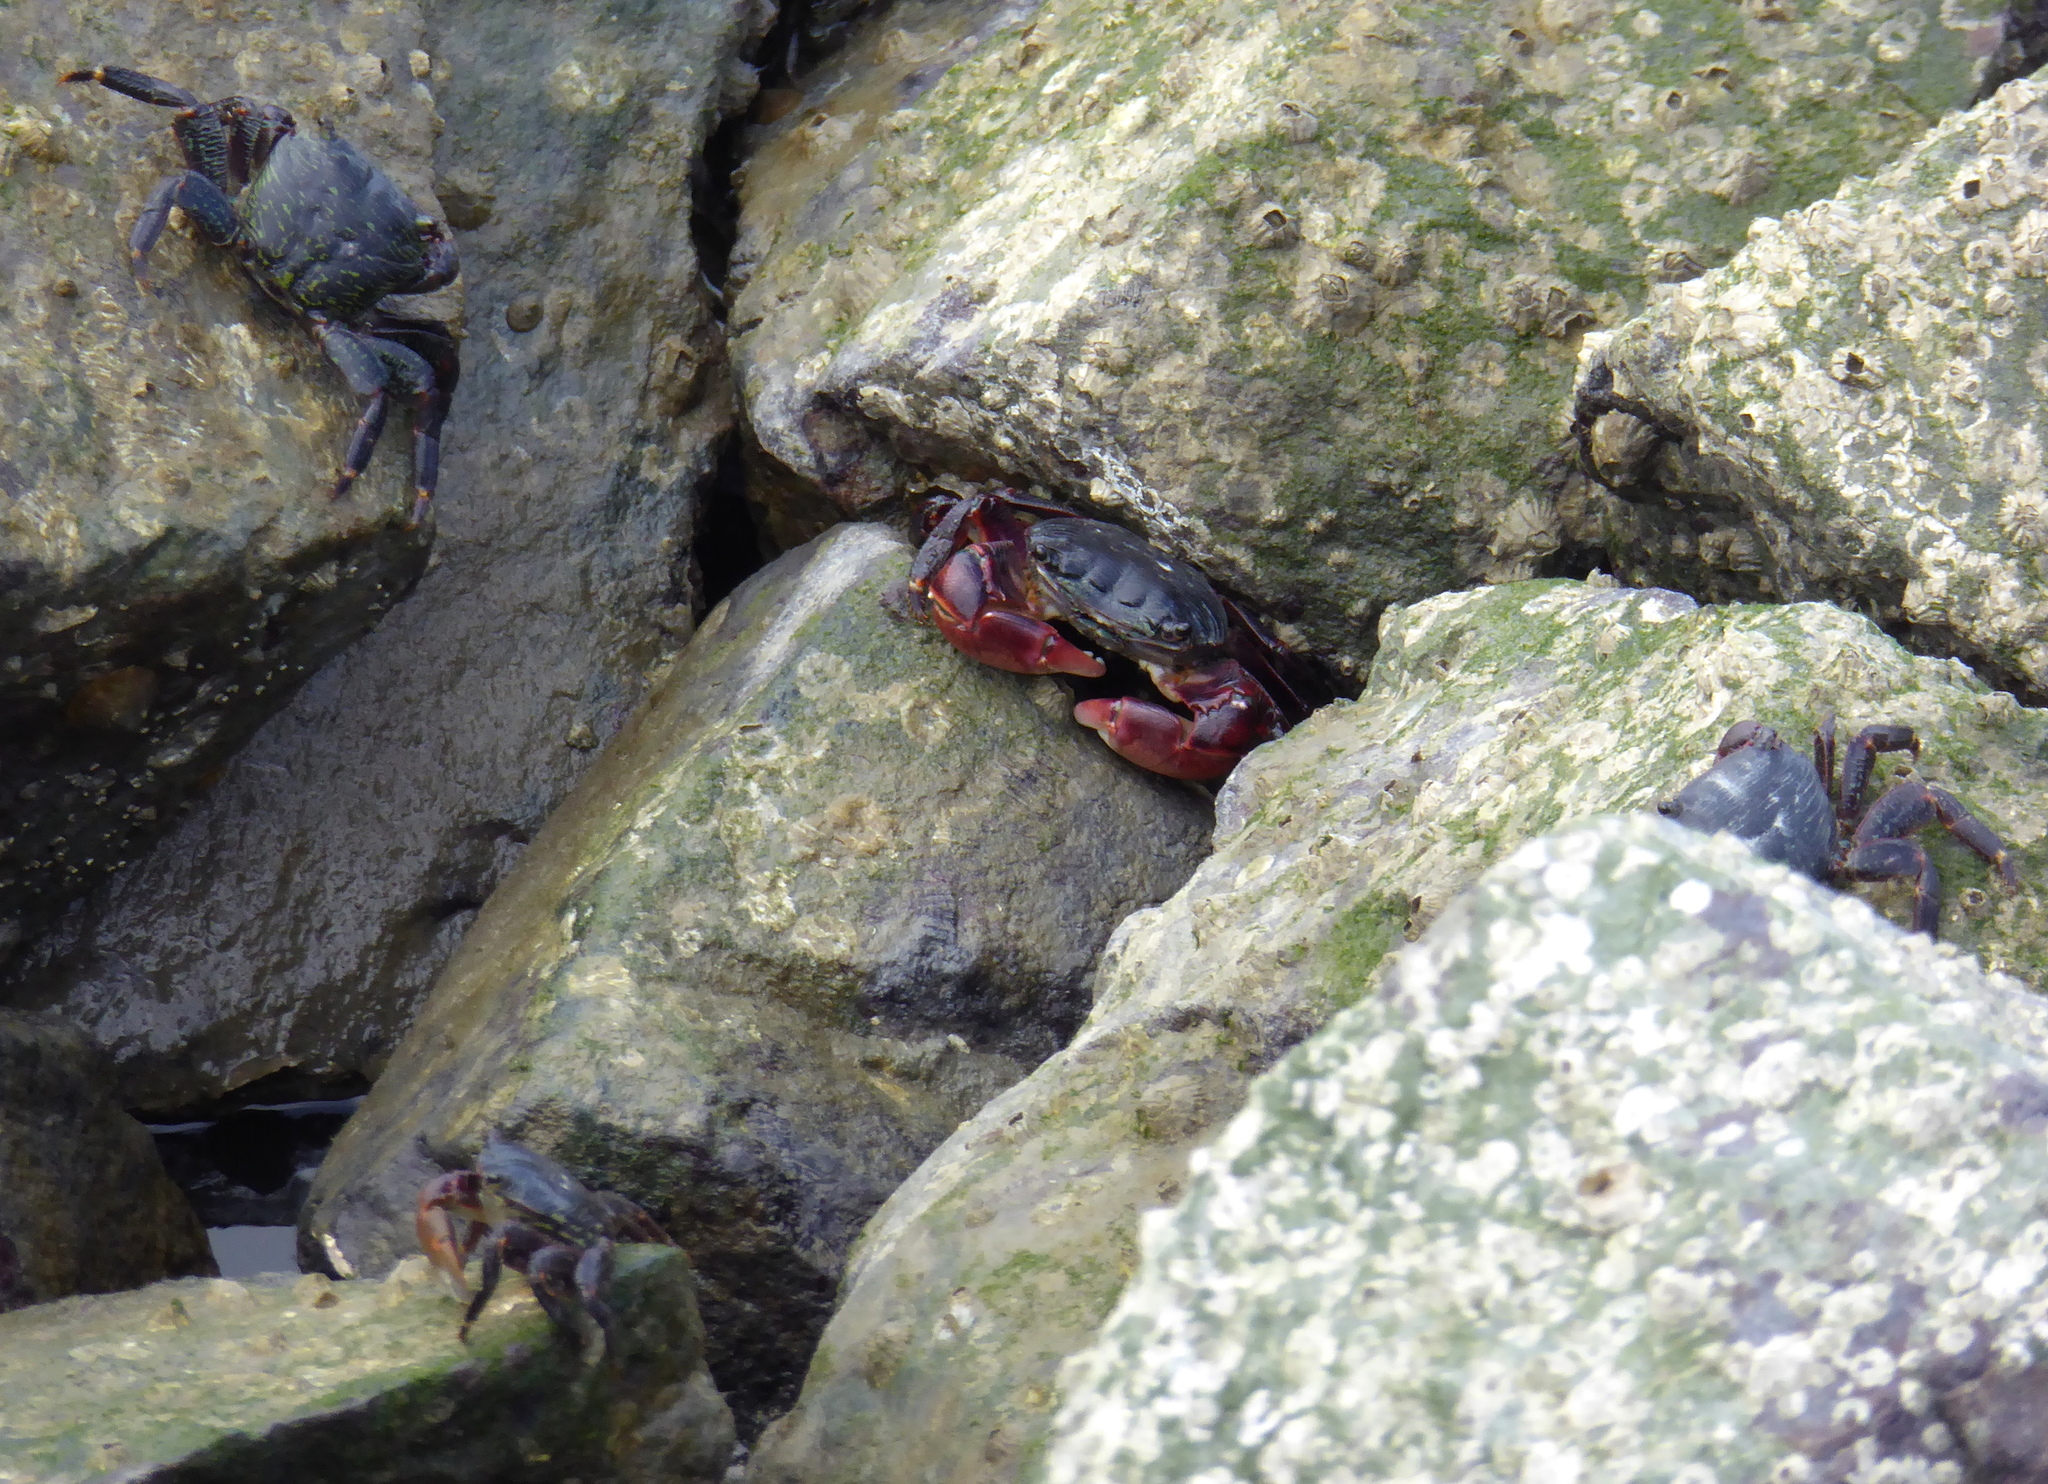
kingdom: Animalia
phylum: Arthropoda
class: Malacostraca
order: Decapoda
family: Grapsidae
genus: Pachygrapsus
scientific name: Pachygrapsus crassipes
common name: Striped shore crab
